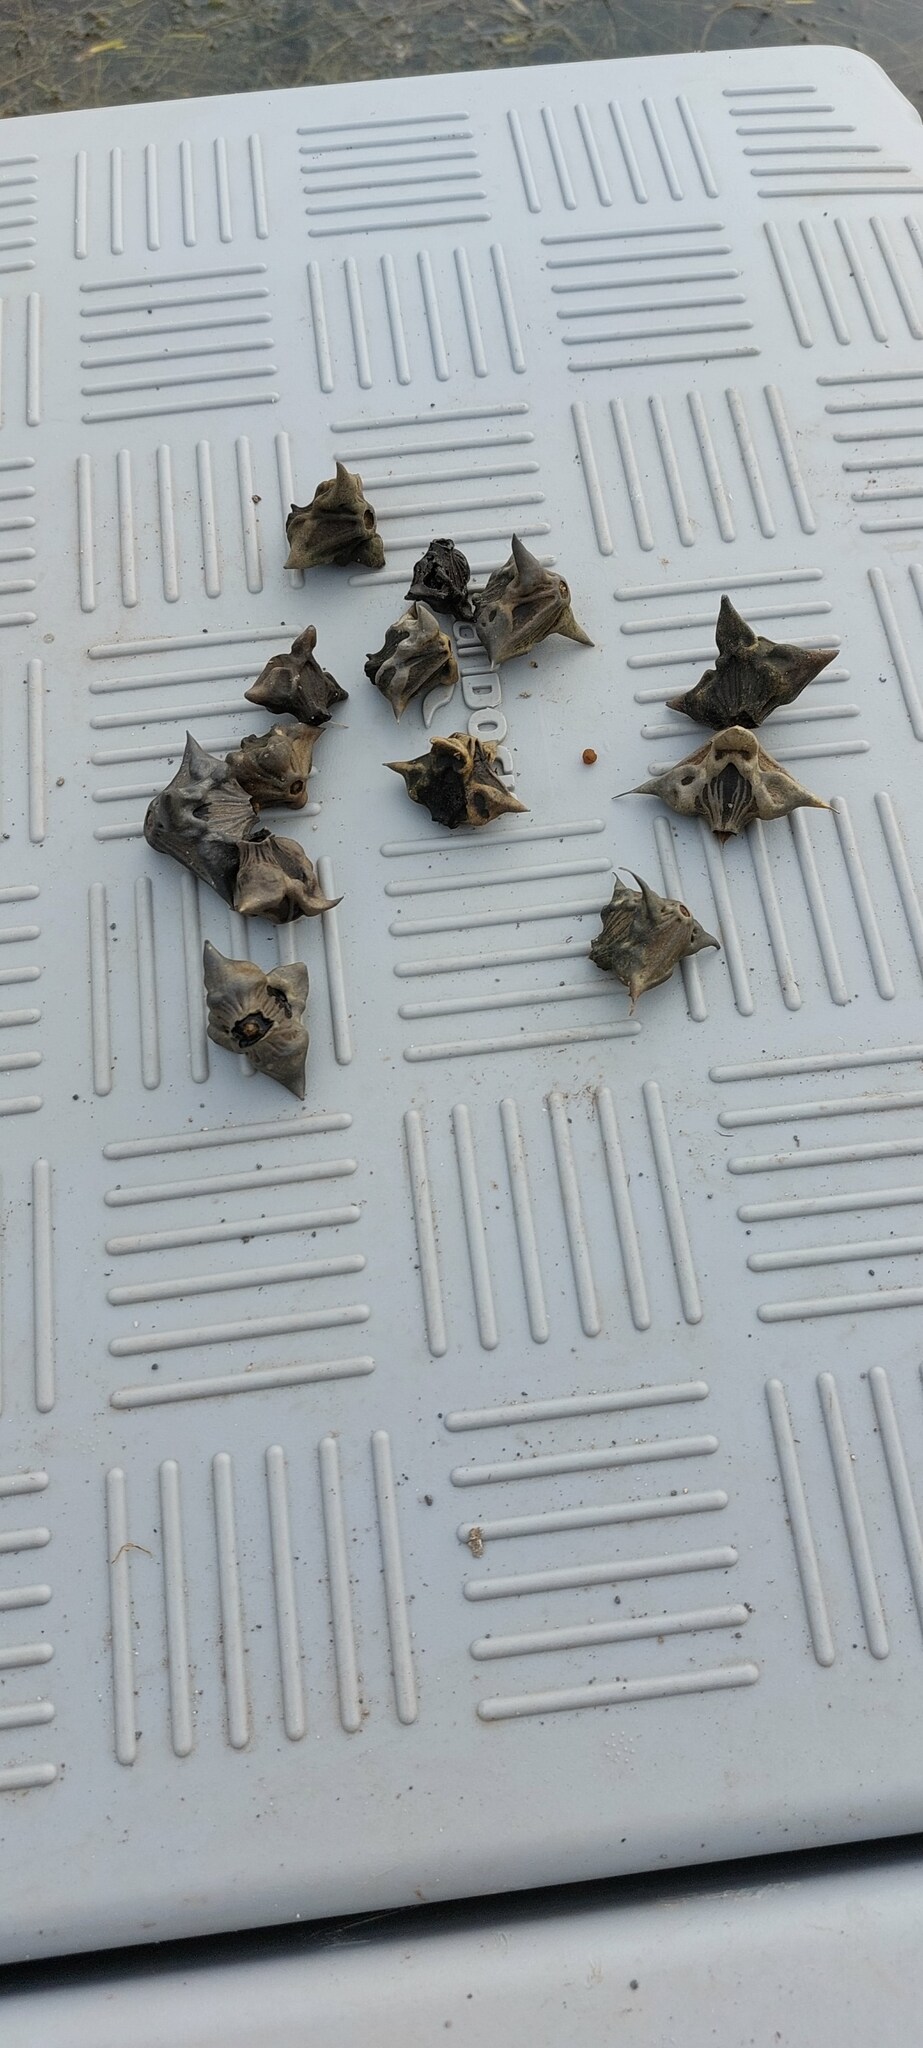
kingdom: Plantae
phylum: Tracheophyta
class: Magnoliopsida
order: Myrtales
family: Lythraceae
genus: Trapa
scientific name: Trapa natans
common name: Water chestnut
